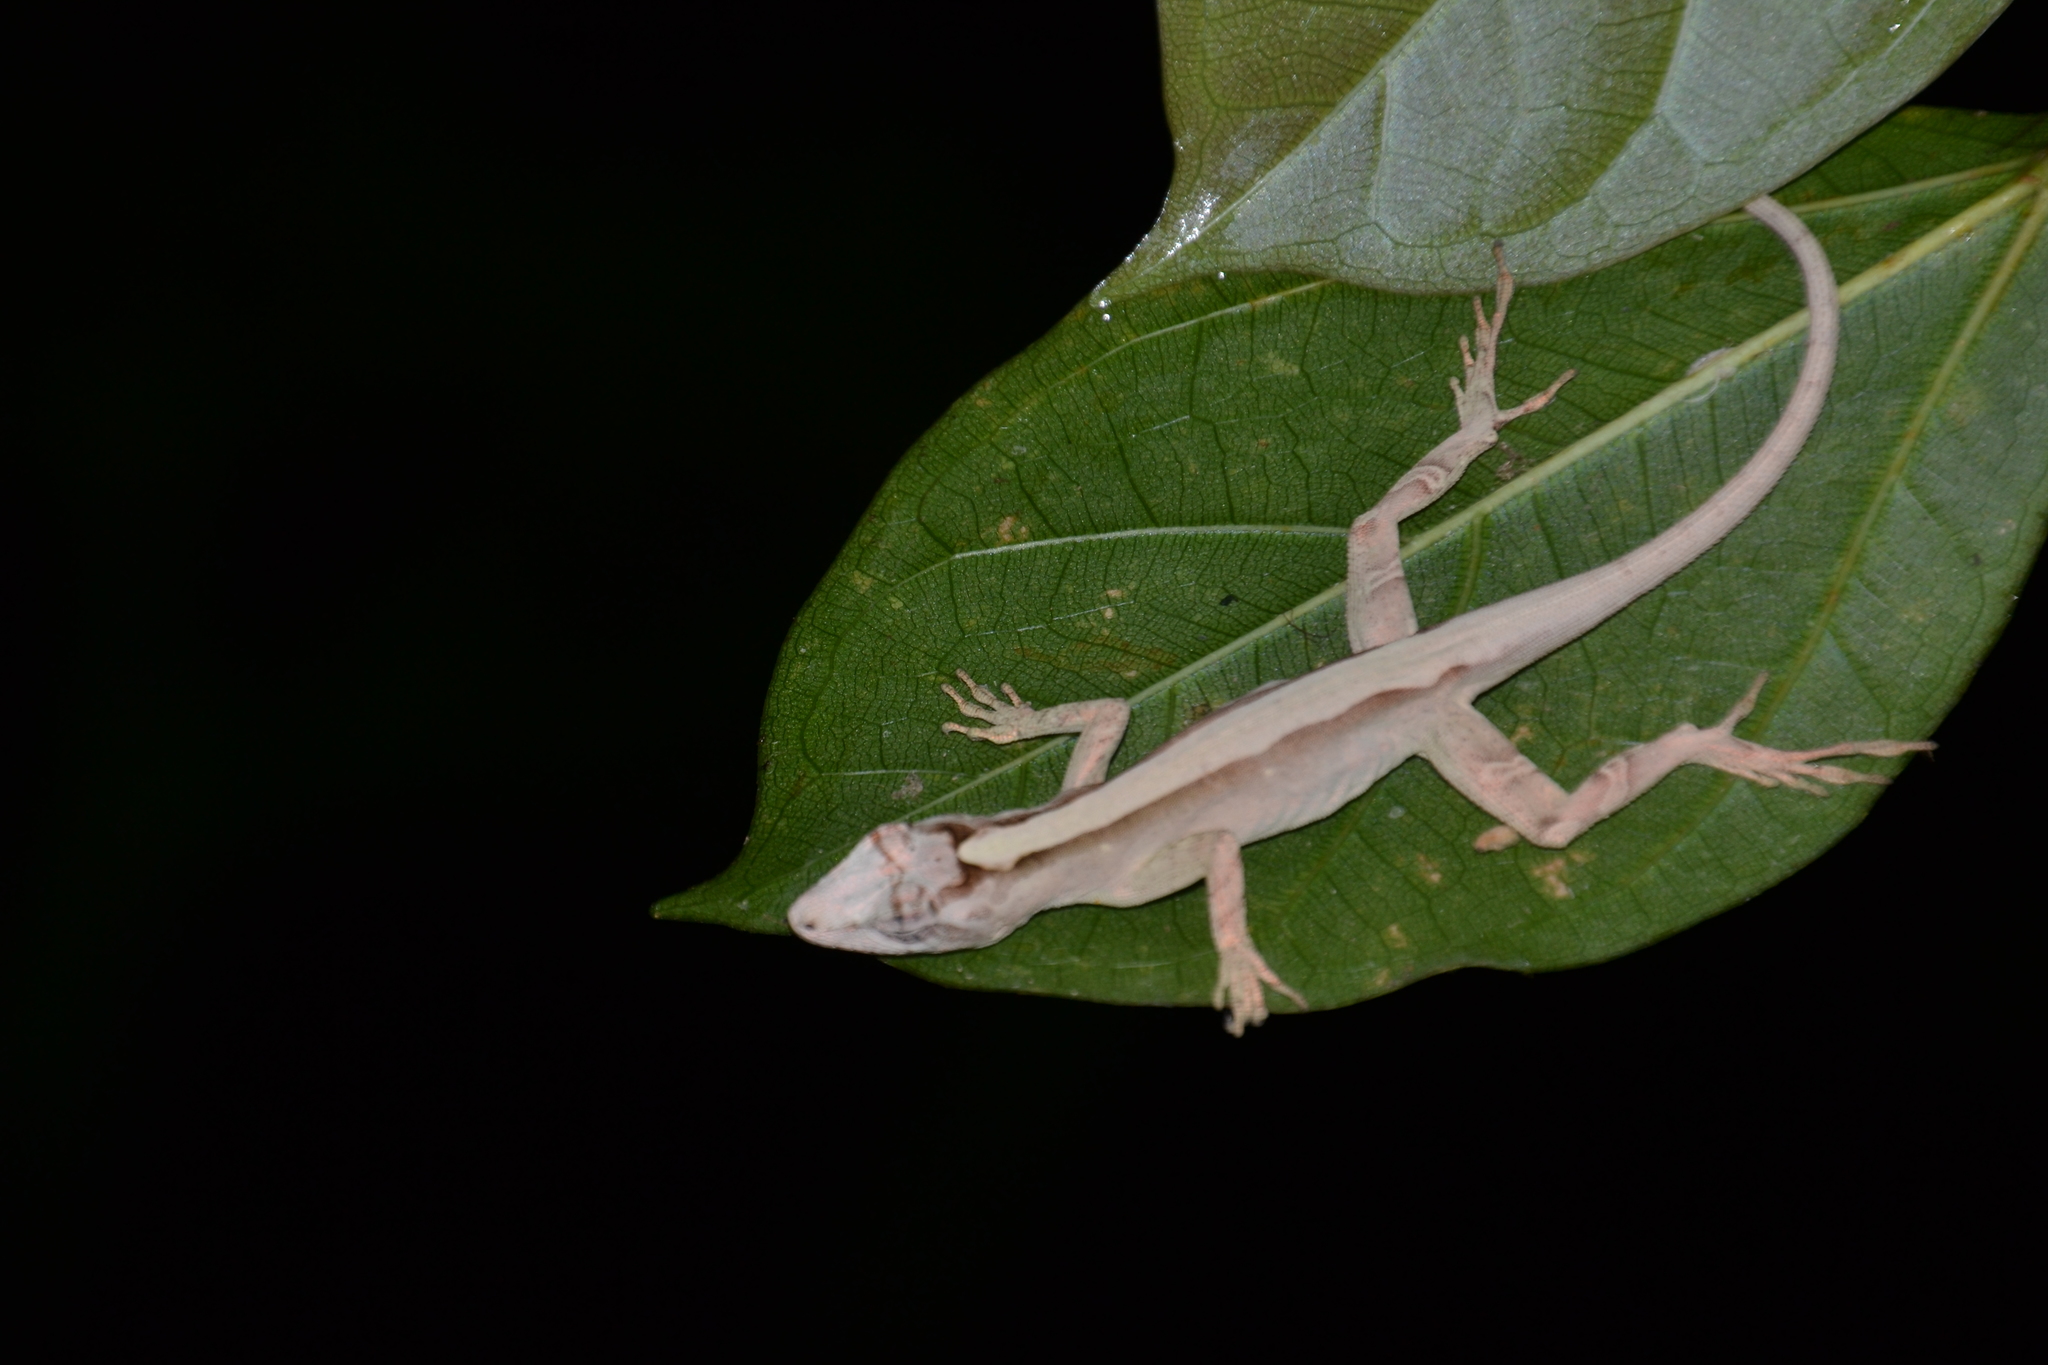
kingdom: Animalia
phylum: Chordata
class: Squamata
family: Dactyloidae
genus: Anolis
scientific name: Anolis lemurinus
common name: Ghost anole
